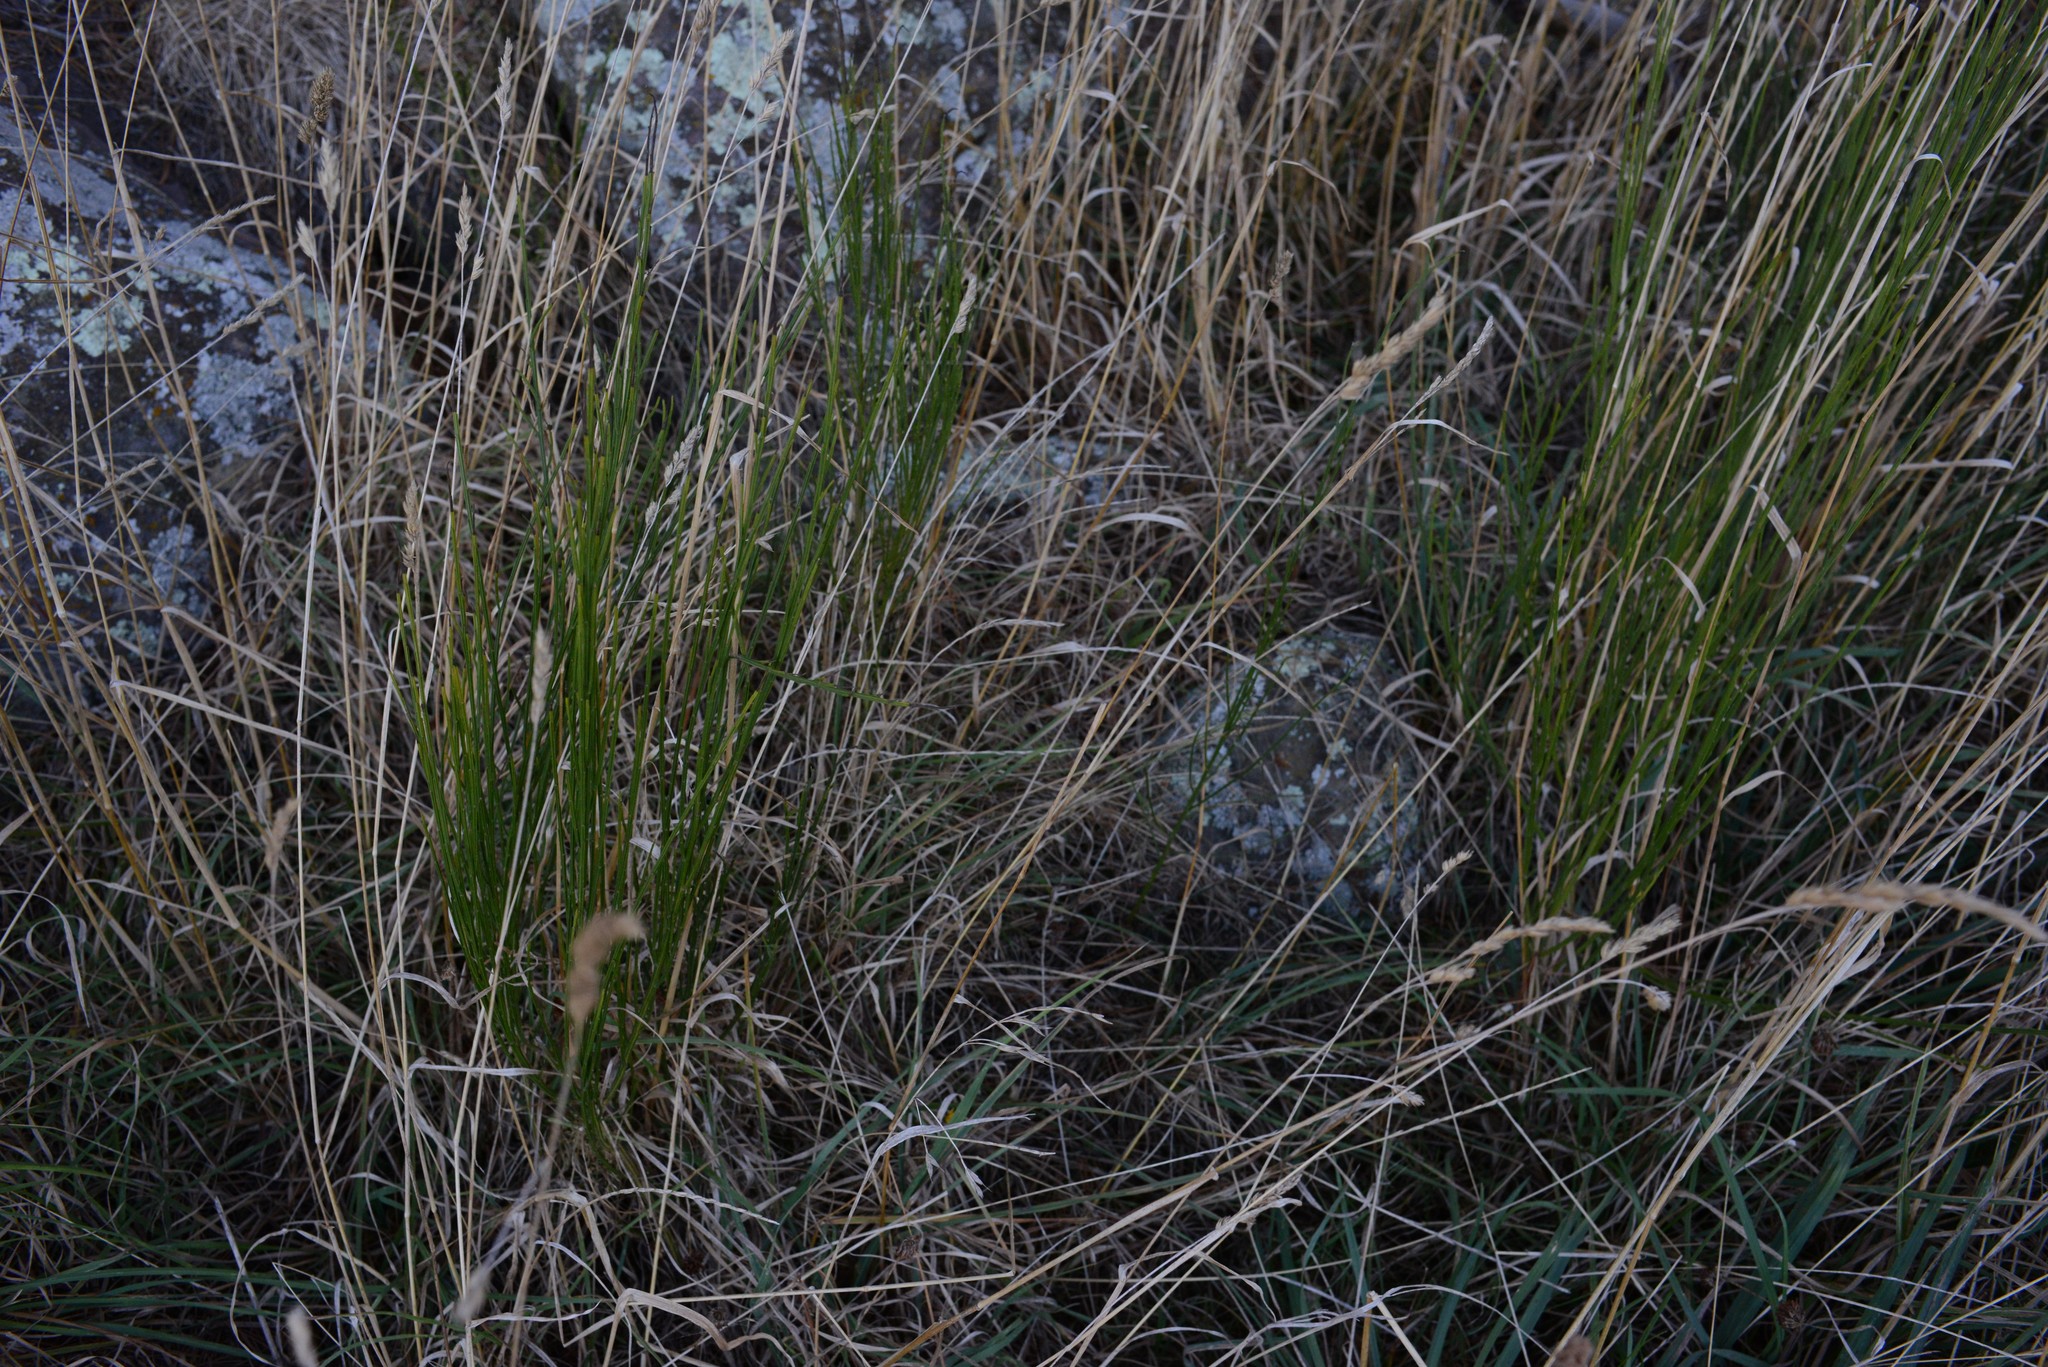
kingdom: Plantae
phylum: Tracheophyta
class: Magnoliopsida
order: Fabales
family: Fabaceae
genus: Cytisus
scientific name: Cytisus scoparius
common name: Scotch broom
